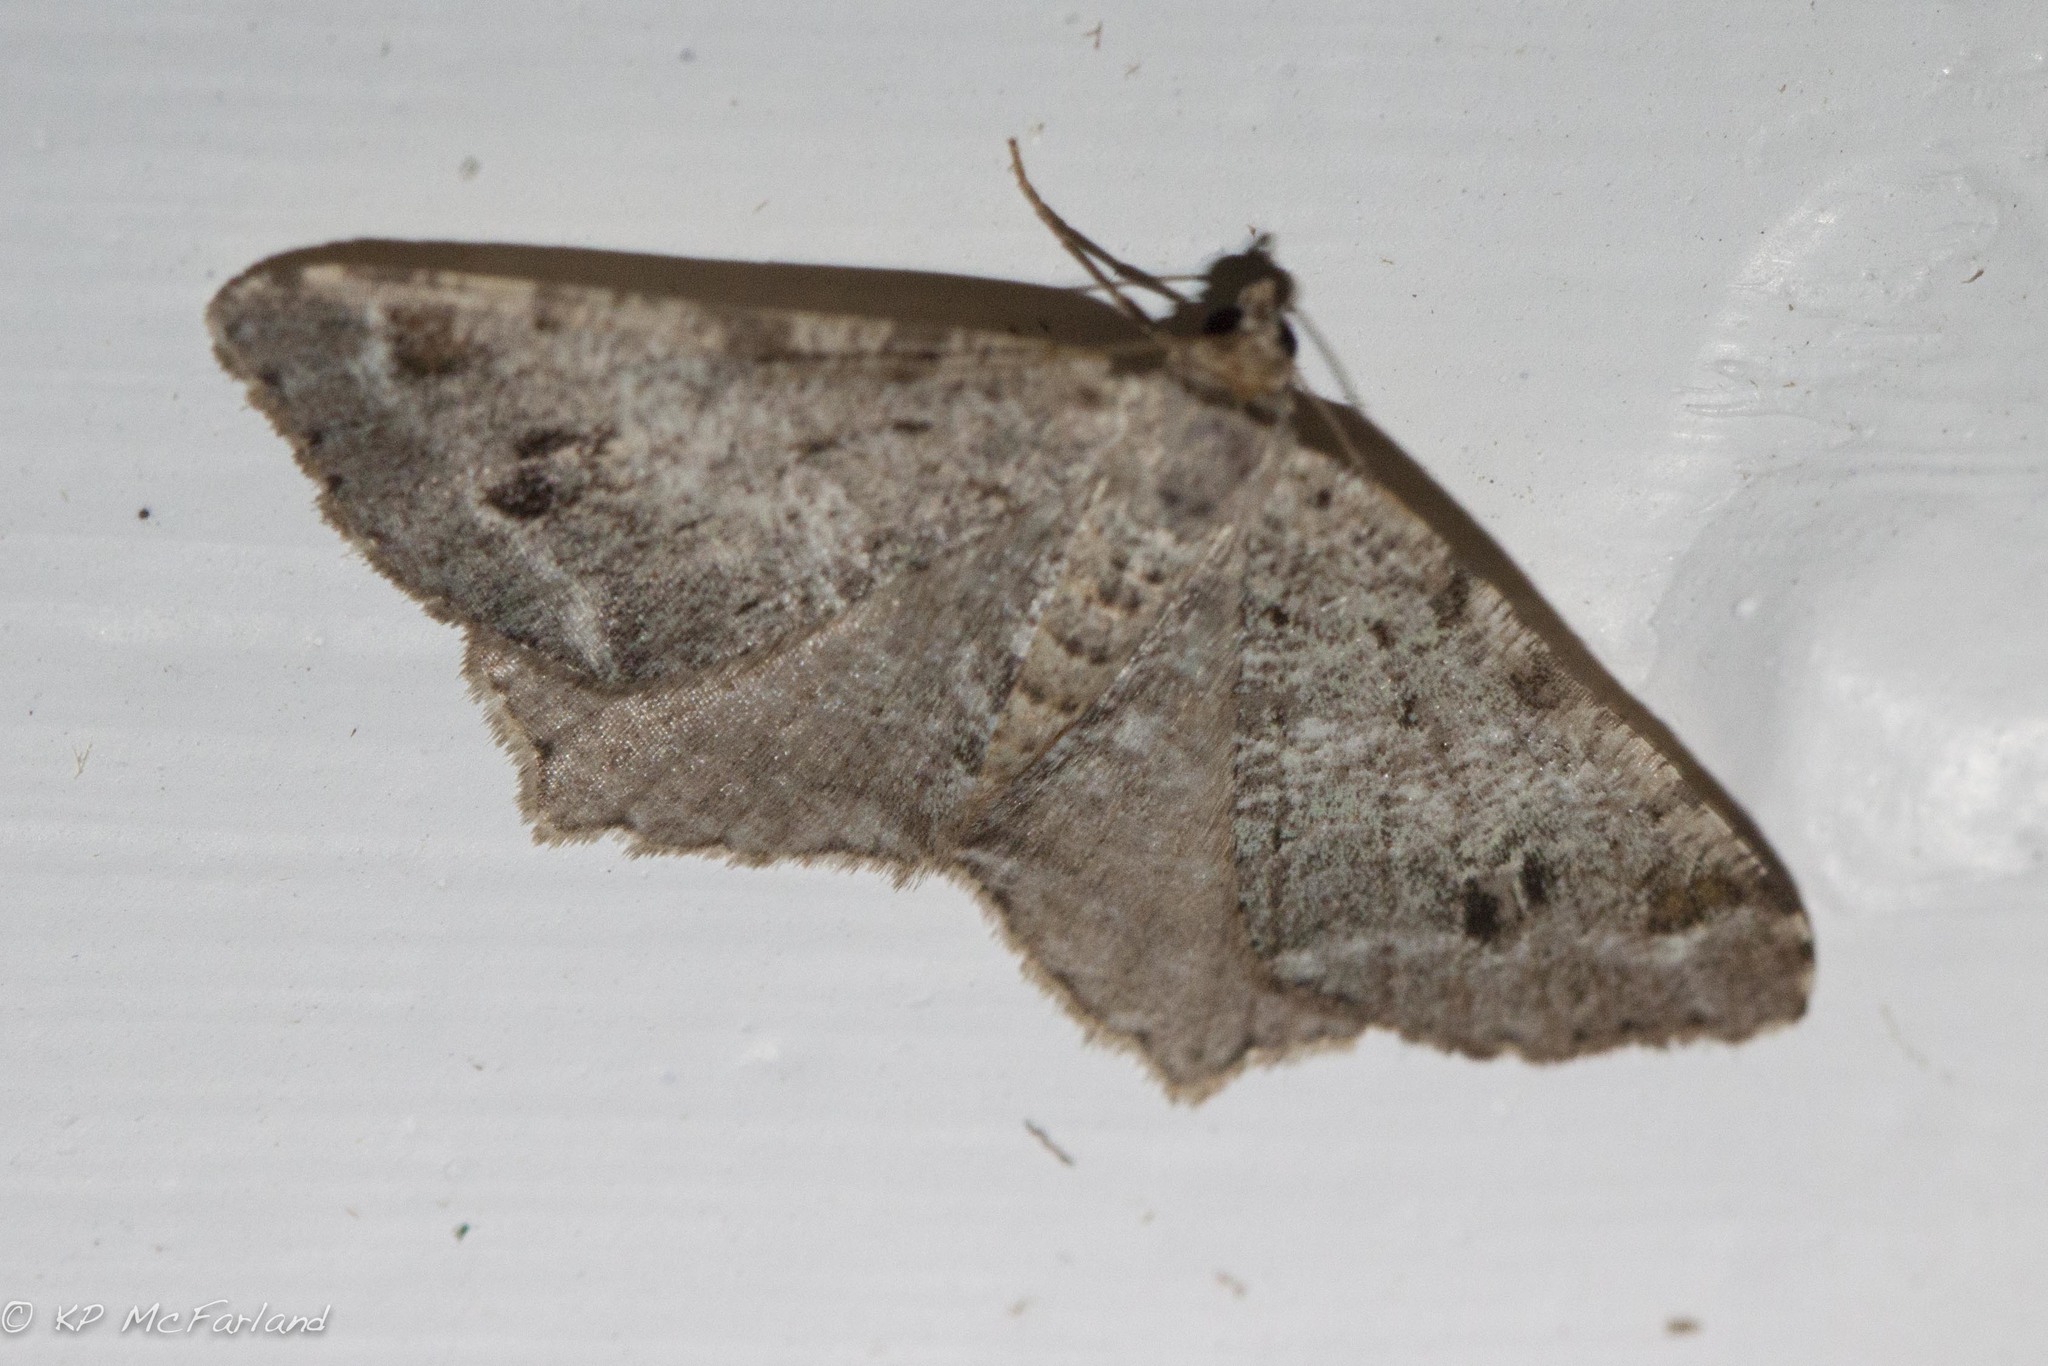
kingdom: Animalia
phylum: Arthropoda
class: Insecta
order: Lepidoptera
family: Geometridae
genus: Macaria
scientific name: Macaria fissinotata
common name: Hemlock angle
